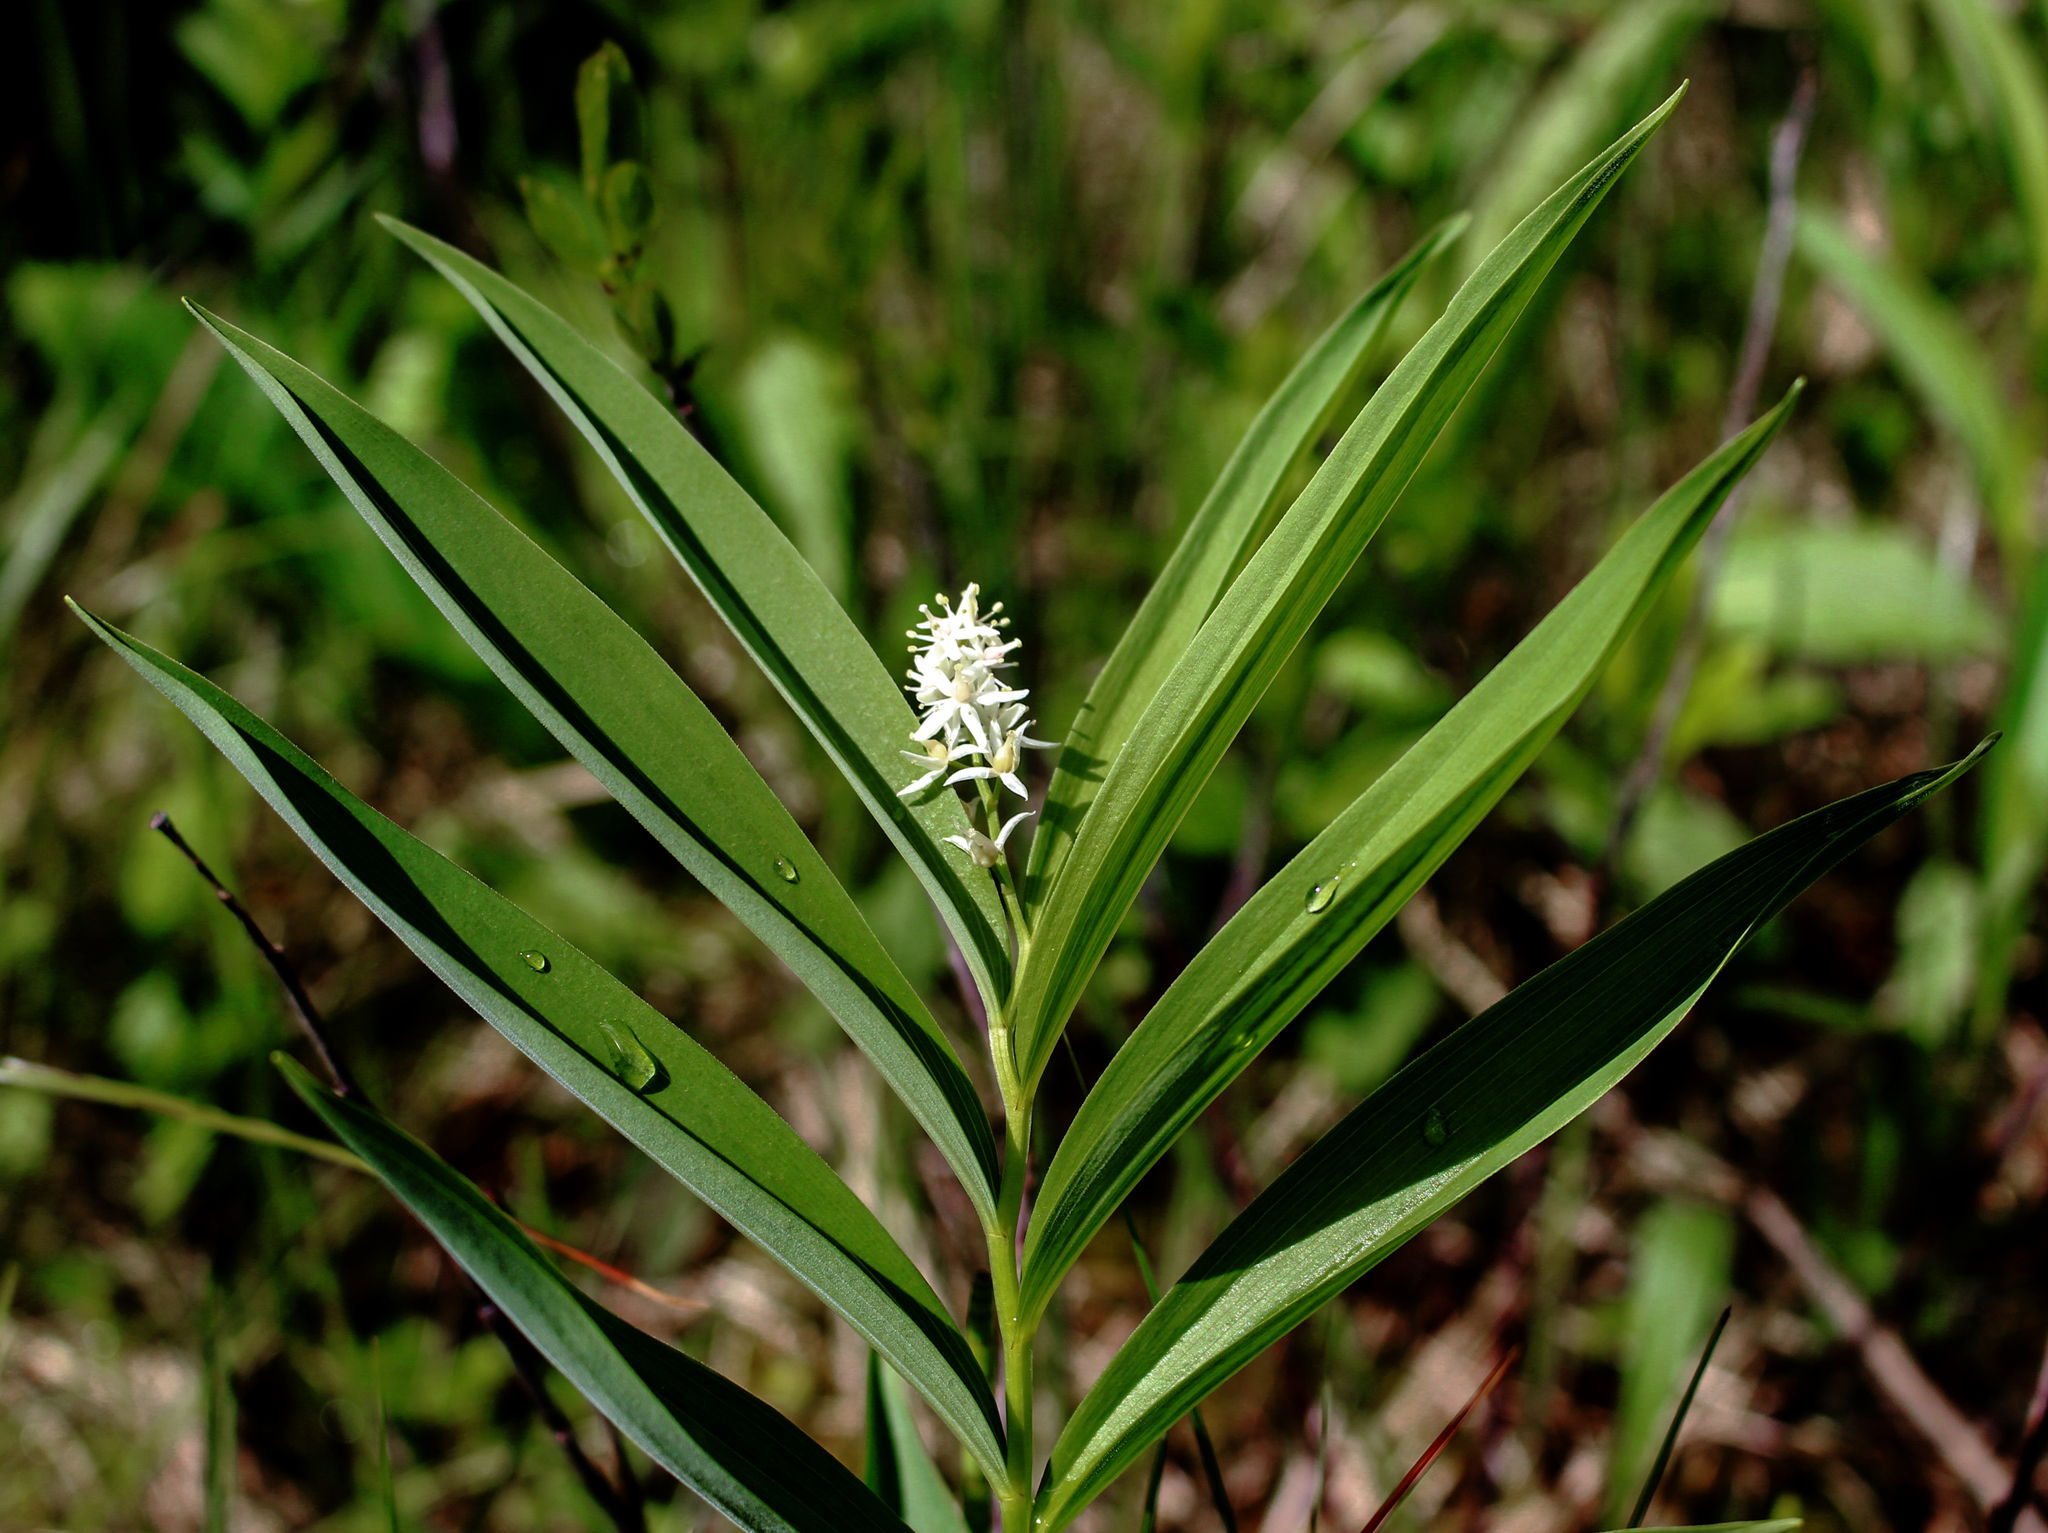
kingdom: Plantae
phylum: Tracheophyta
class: Liliopsida
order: Asparagales
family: Asparagaceae
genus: Maianthemum
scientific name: Maianthemum stellatum
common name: Little false solomon's seal
